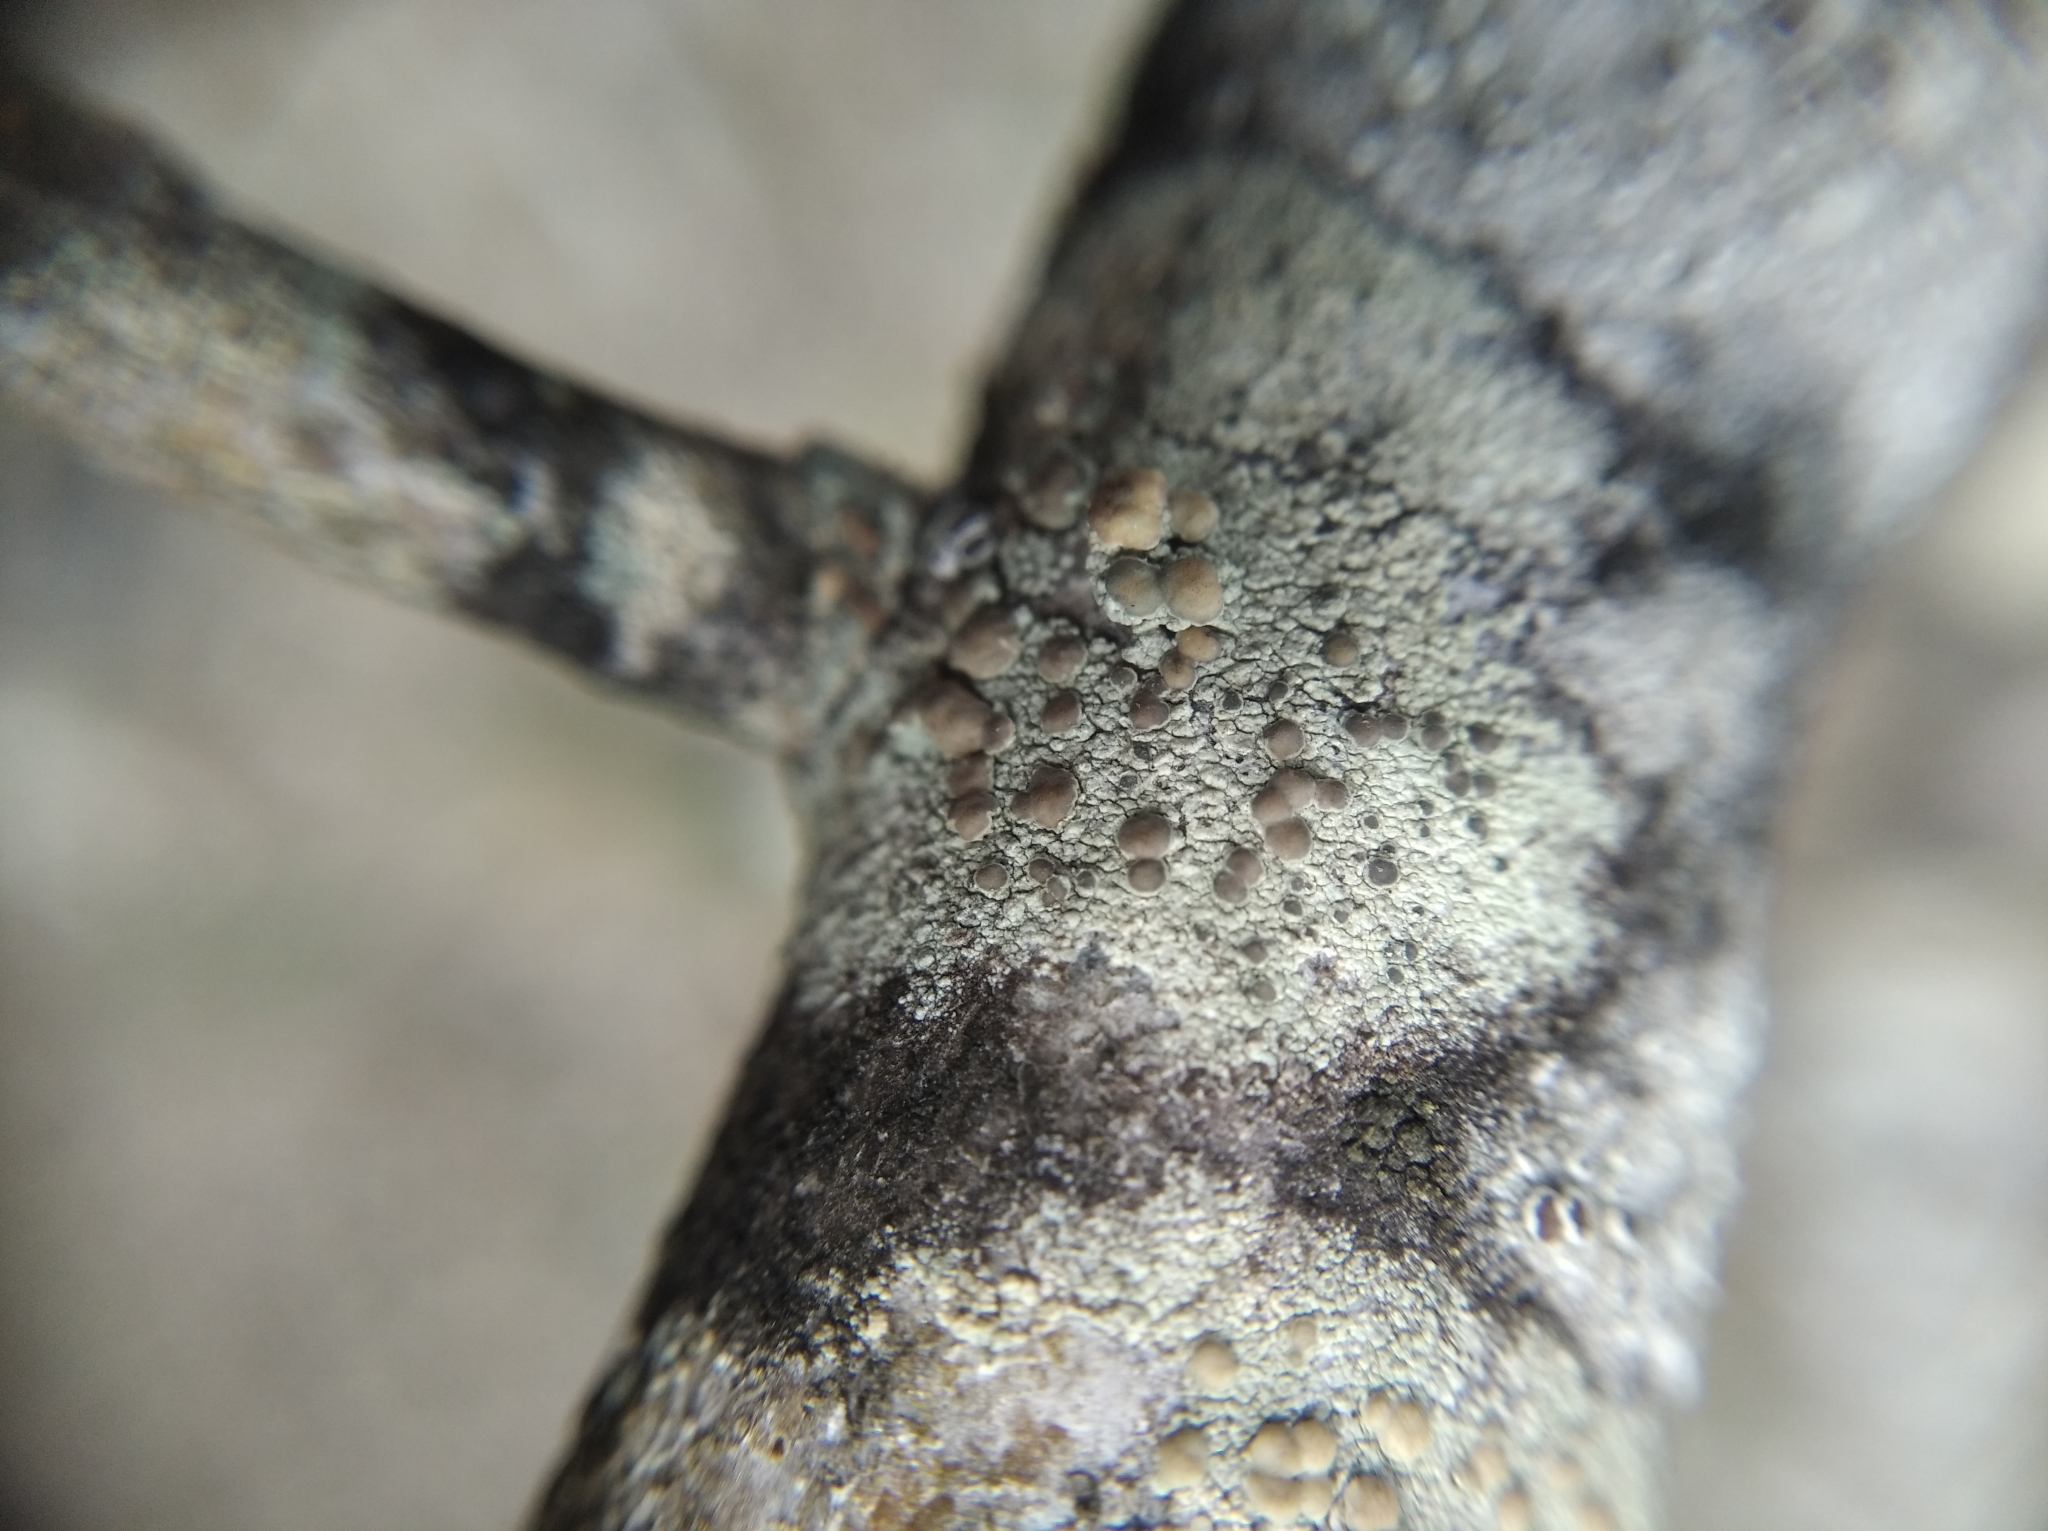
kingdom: Fungi
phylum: Ascomycota
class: Lecanoromycetes
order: Lecanorales
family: Lecanoraceae
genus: Lecanora
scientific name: Lecanora symmicta
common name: Fused rim lichen
